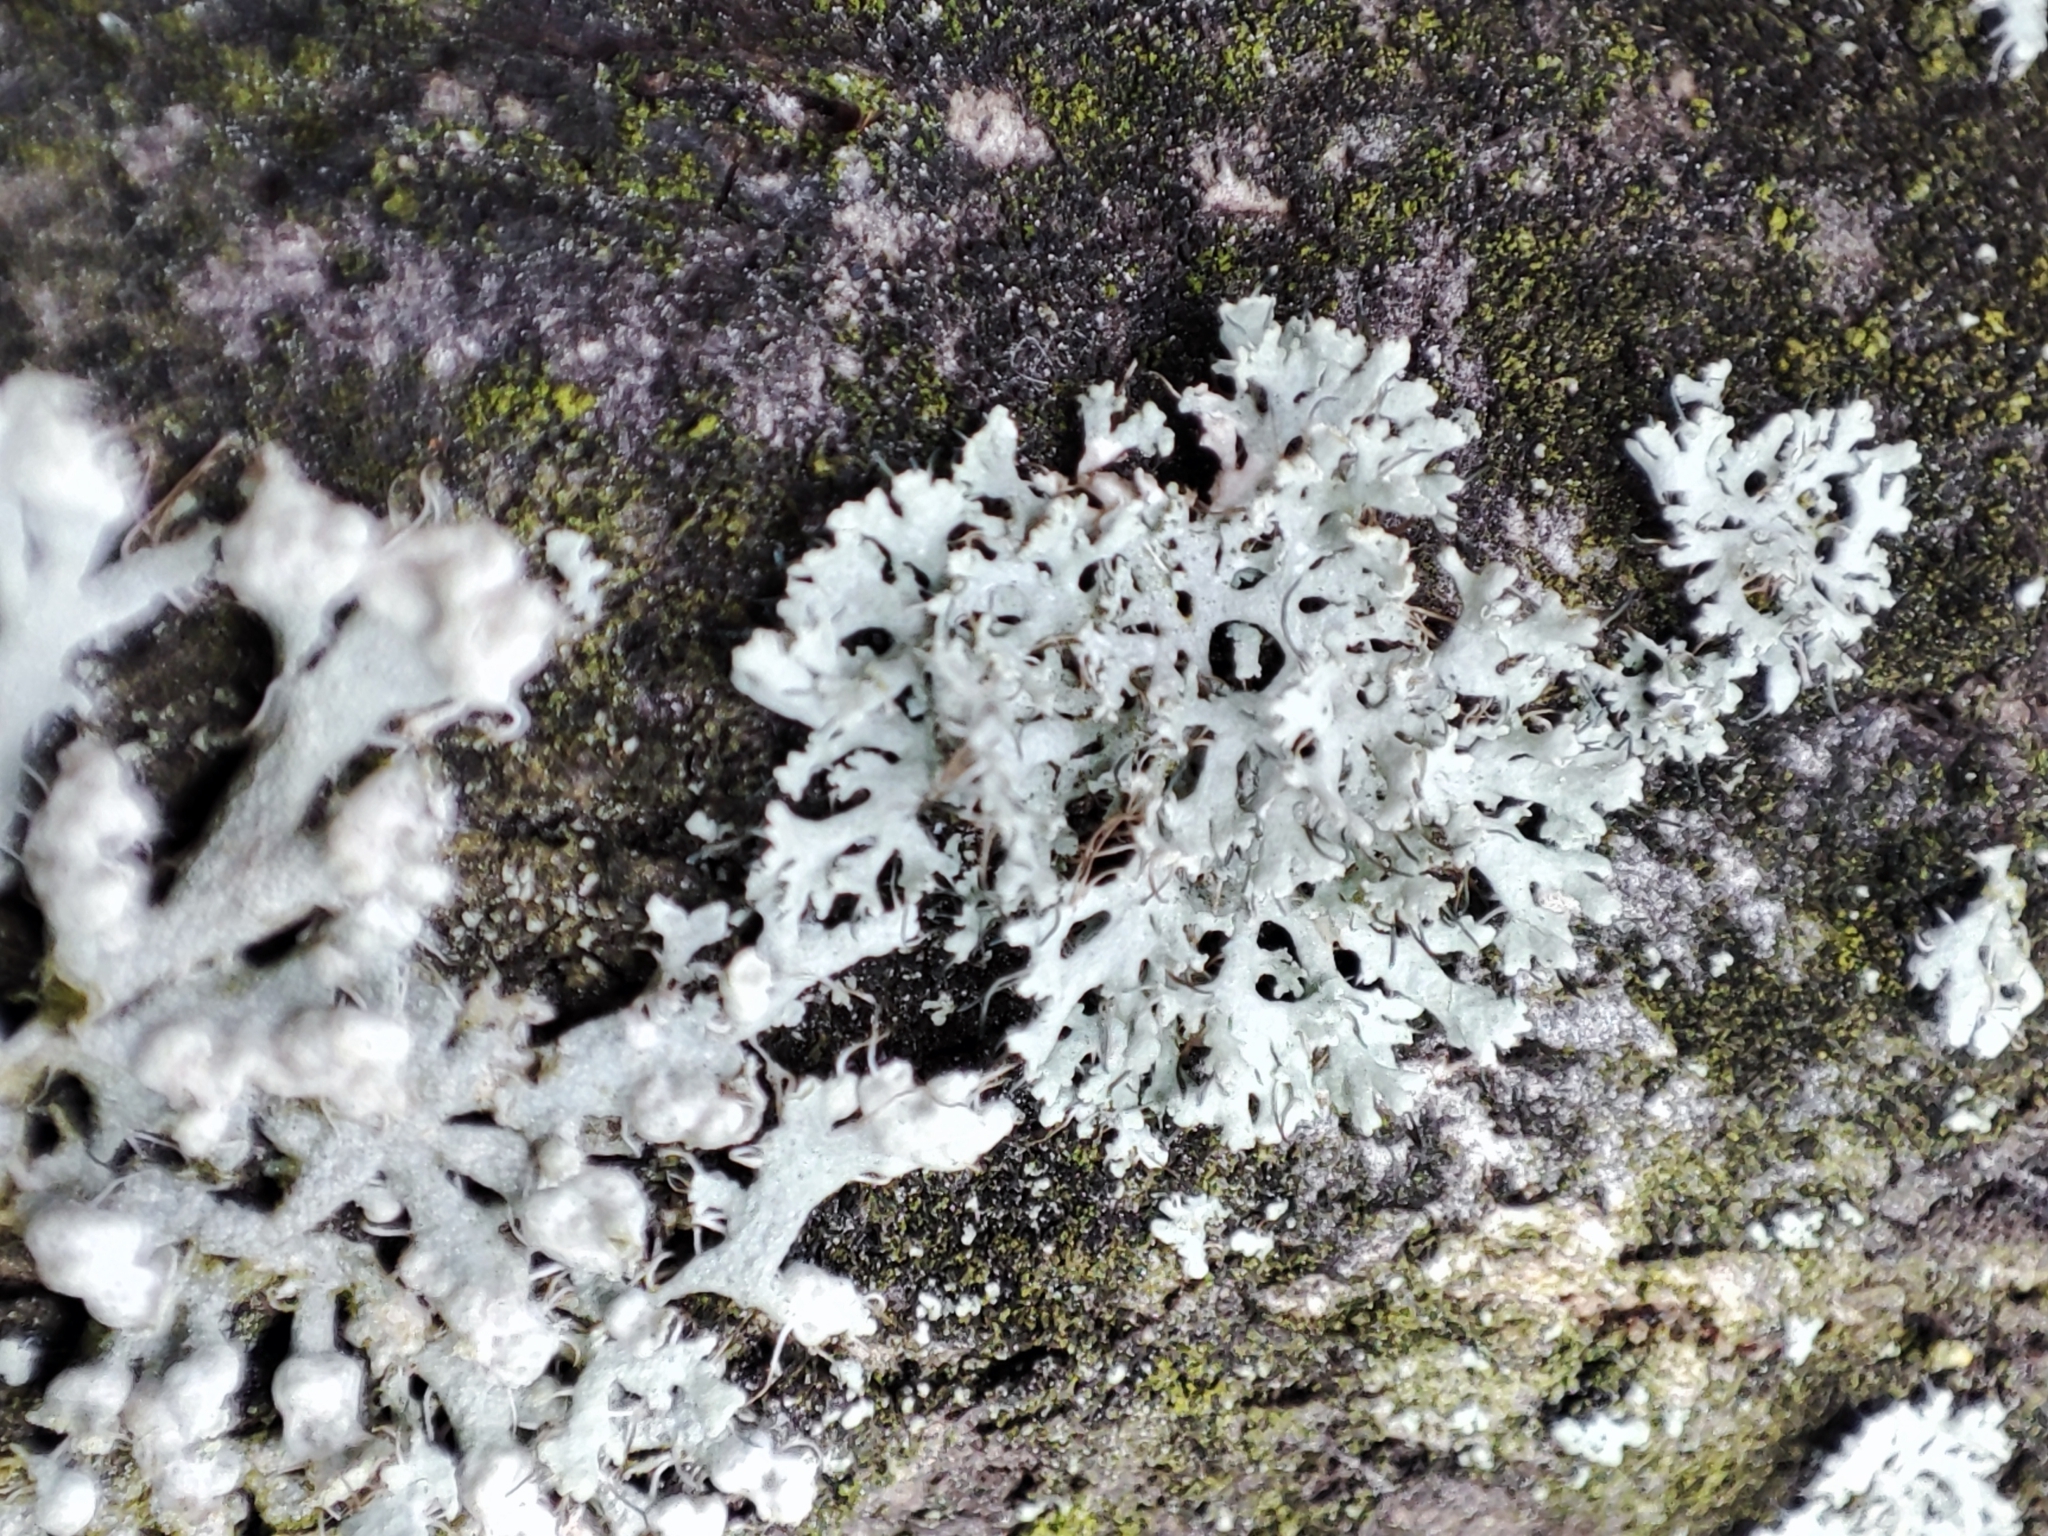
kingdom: Fungi
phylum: Ascomycota
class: Lecanoromycetes
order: Caliciales
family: Physciaceae
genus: Physcia
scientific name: Physcia tenella
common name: Fringed rosette lichen
